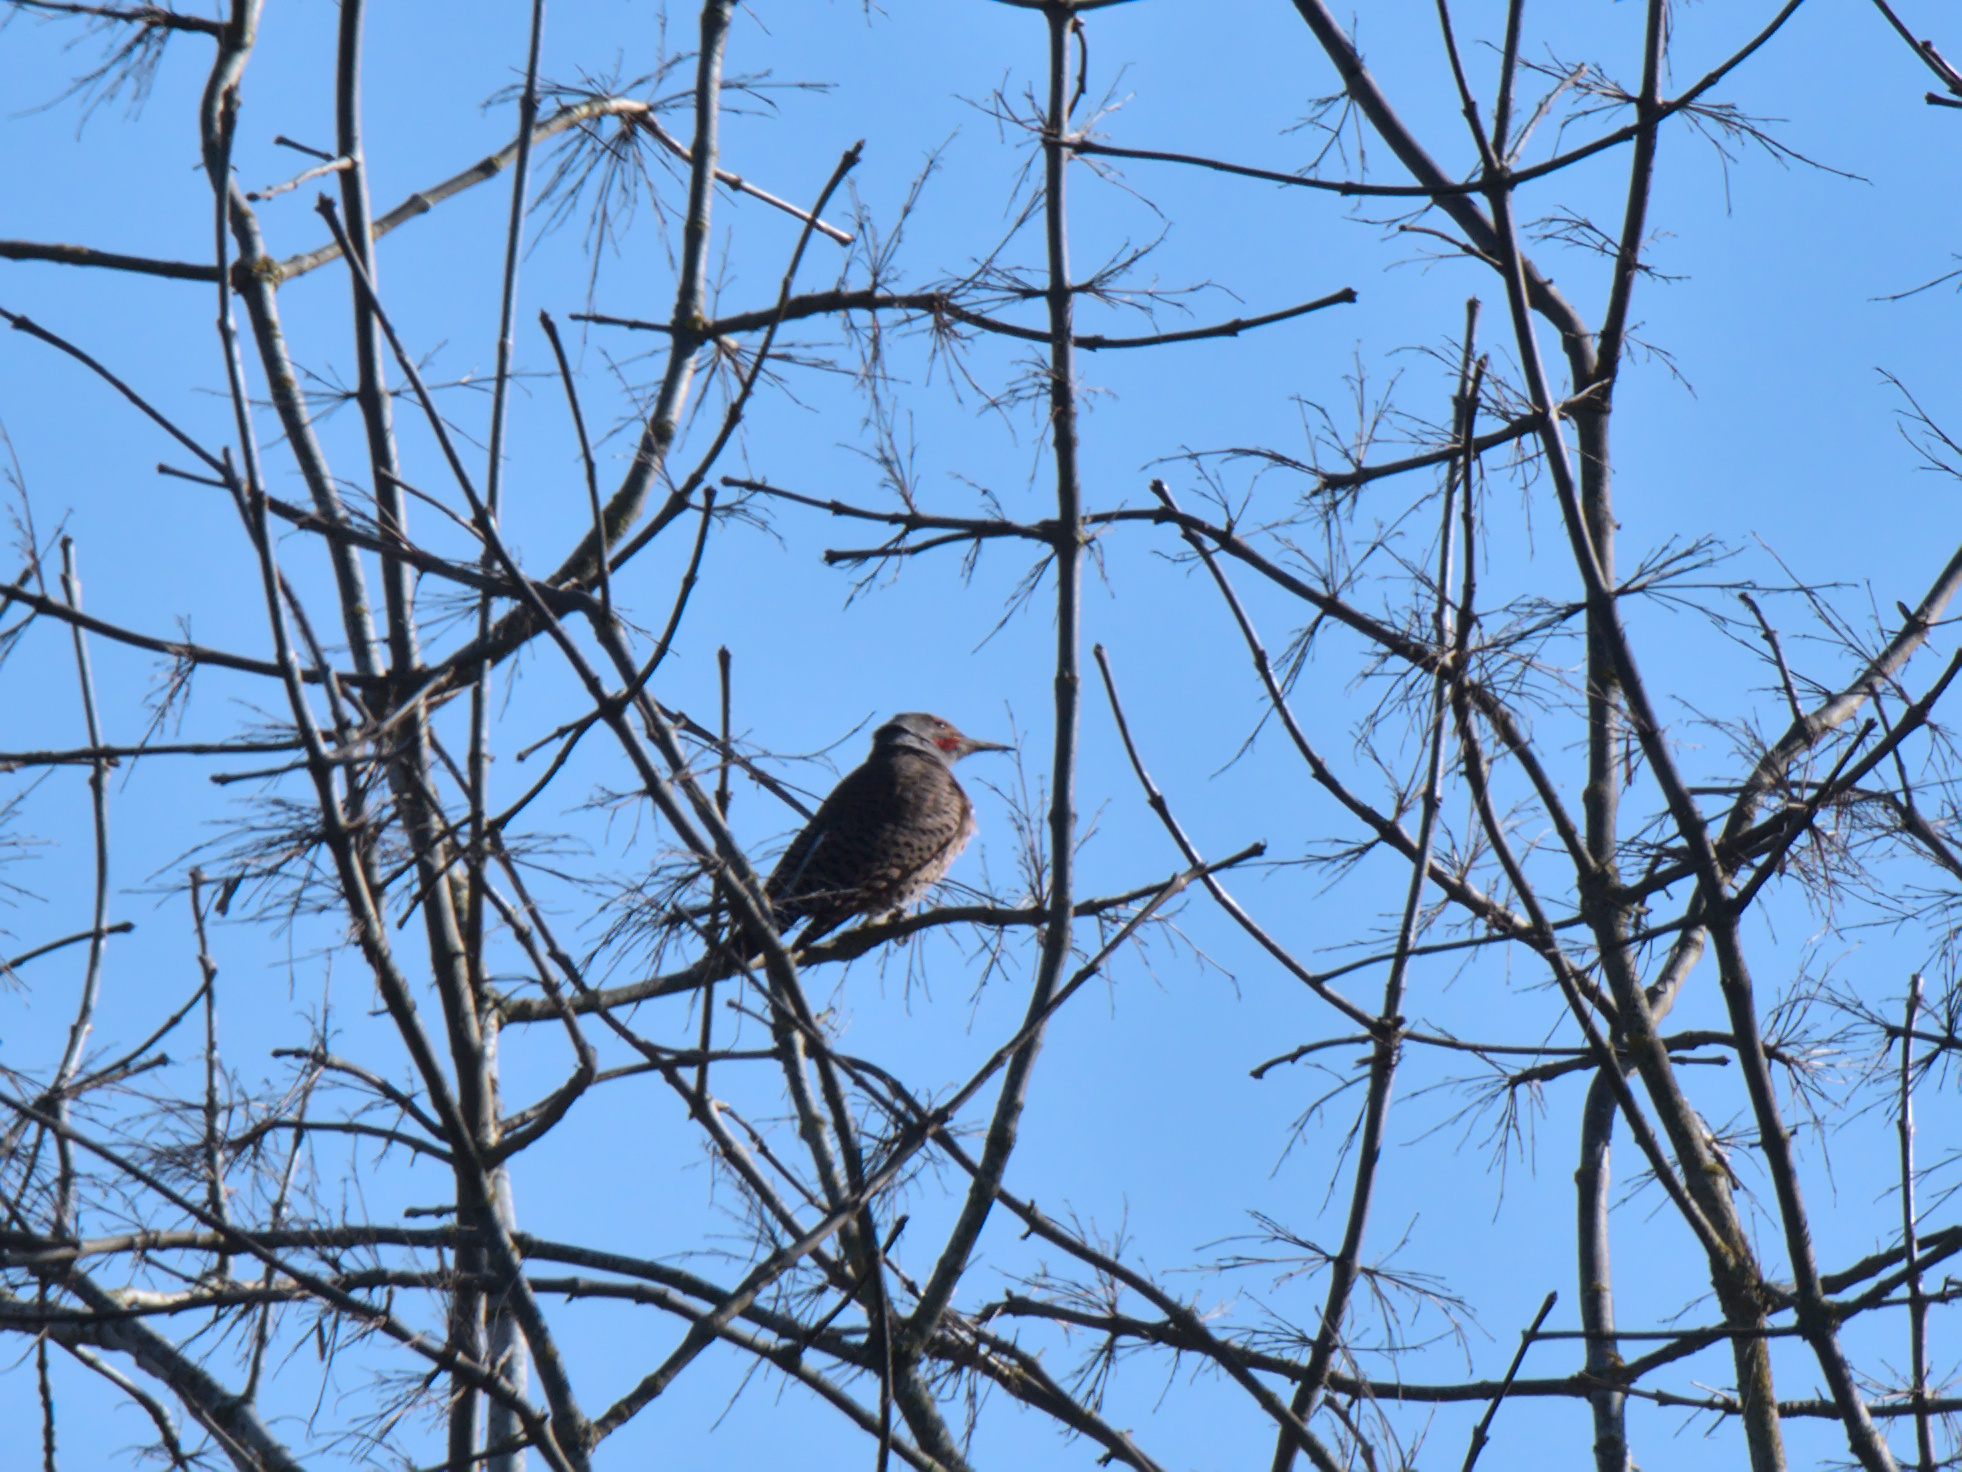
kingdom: Animalia
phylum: Chordata
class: Aves
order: Piciformes
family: Picidae
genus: Colaptes
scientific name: Colaptes auratus
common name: Northern flicker
